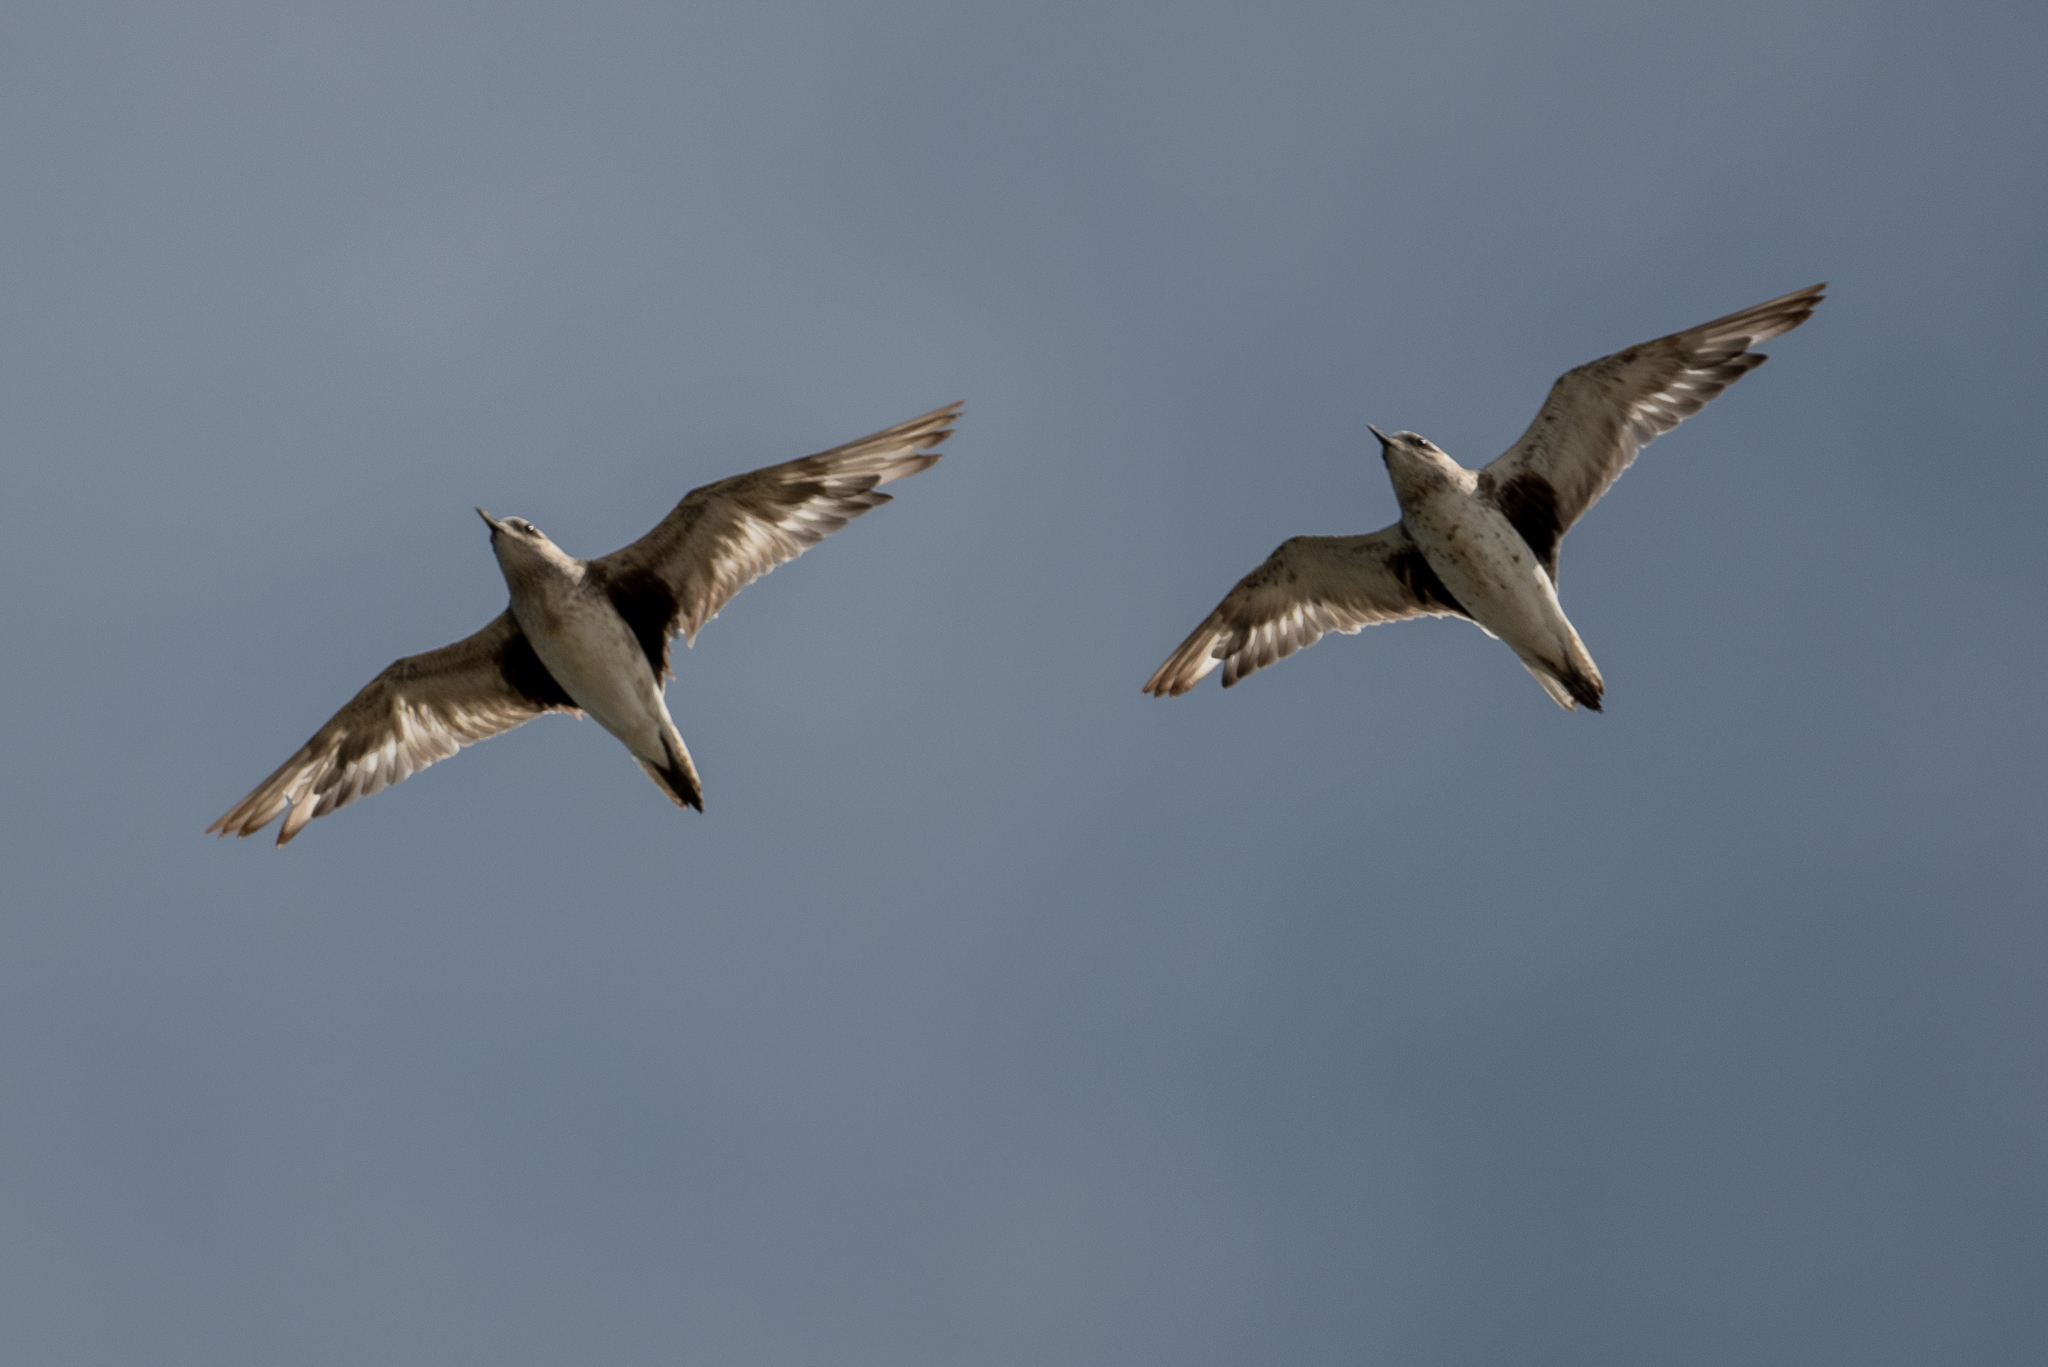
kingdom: Animalia
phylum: Chordata
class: Aves
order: Charadriiformes
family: Charadriidae
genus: Pluvialis
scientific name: Pluvialis squatarola
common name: Grey plover
